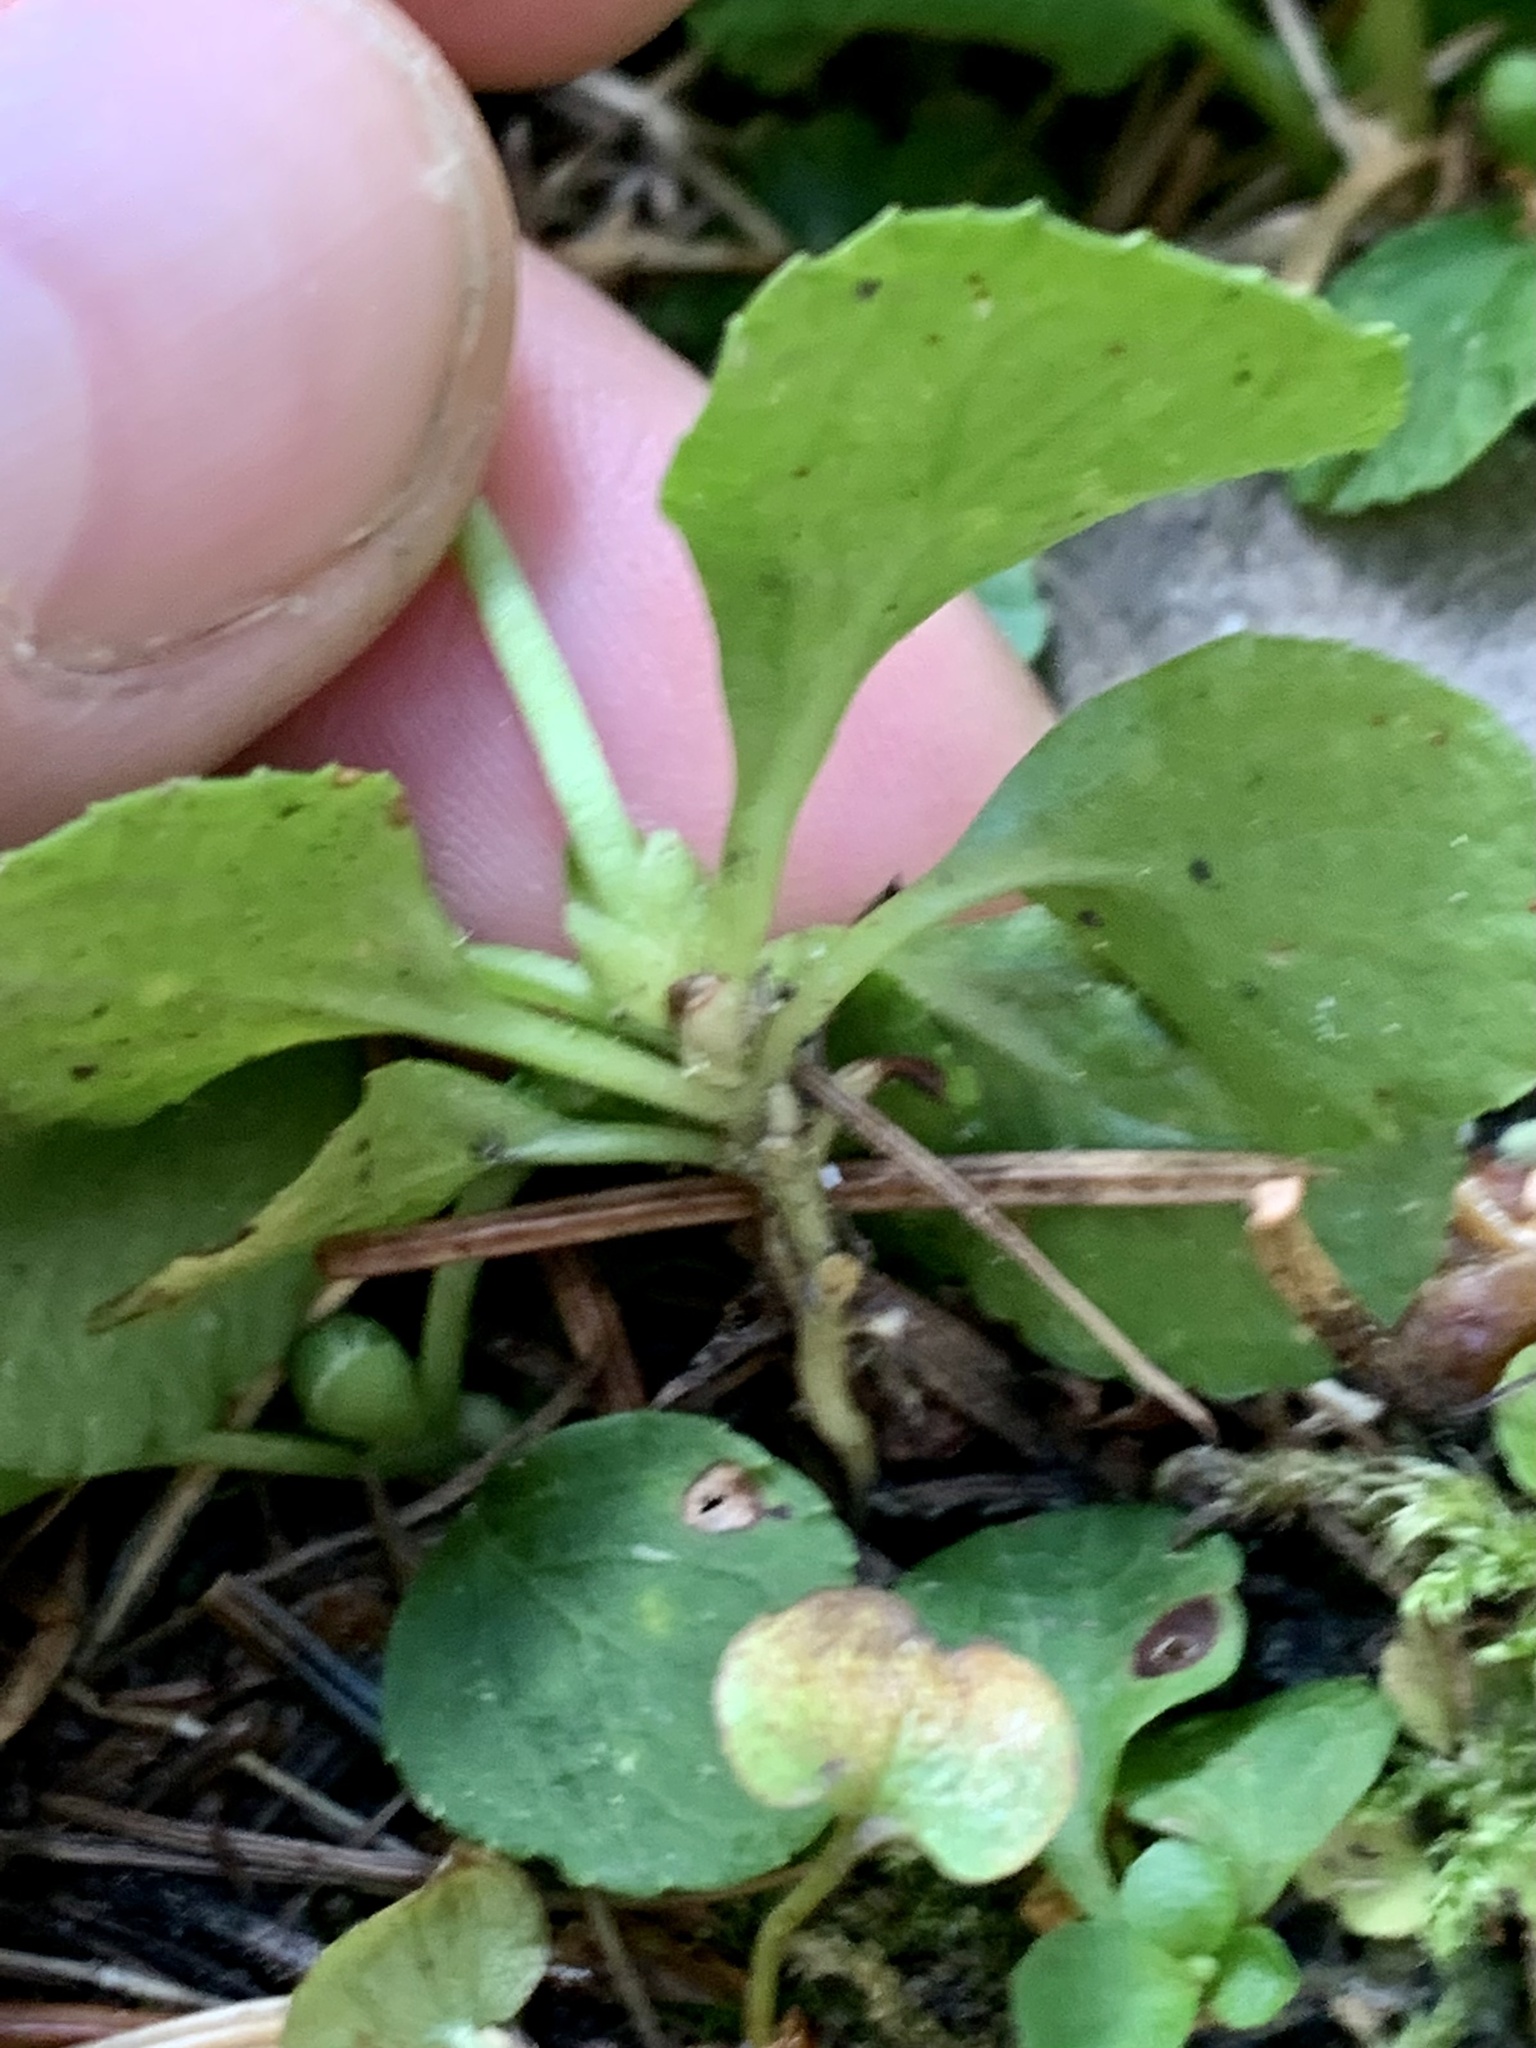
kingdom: Plantae
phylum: Tracheophyta
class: Magnoliopsida
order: Ericales
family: Ericaceae
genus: Moneses
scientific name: Moneses uniflora
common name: One-flowered wintergreen
